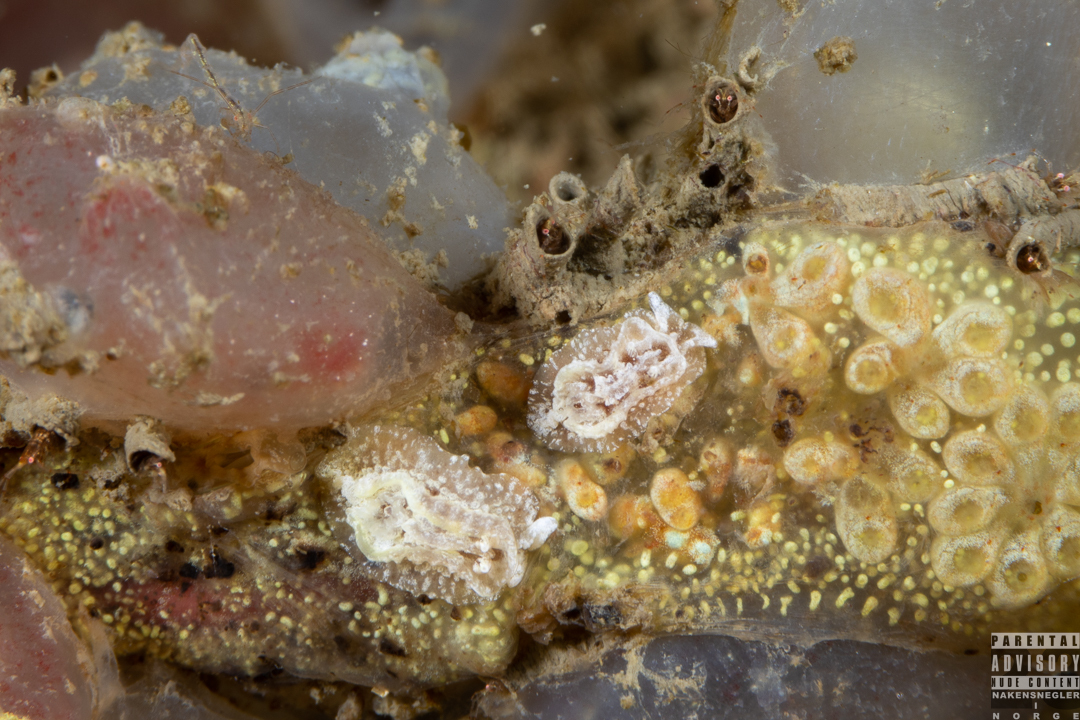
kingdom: Animalia
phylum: Mollusca
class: Gastropoda
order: Nudibranchia
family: Goniodorididae
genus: Pelagella
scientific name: Pelagella castanea
